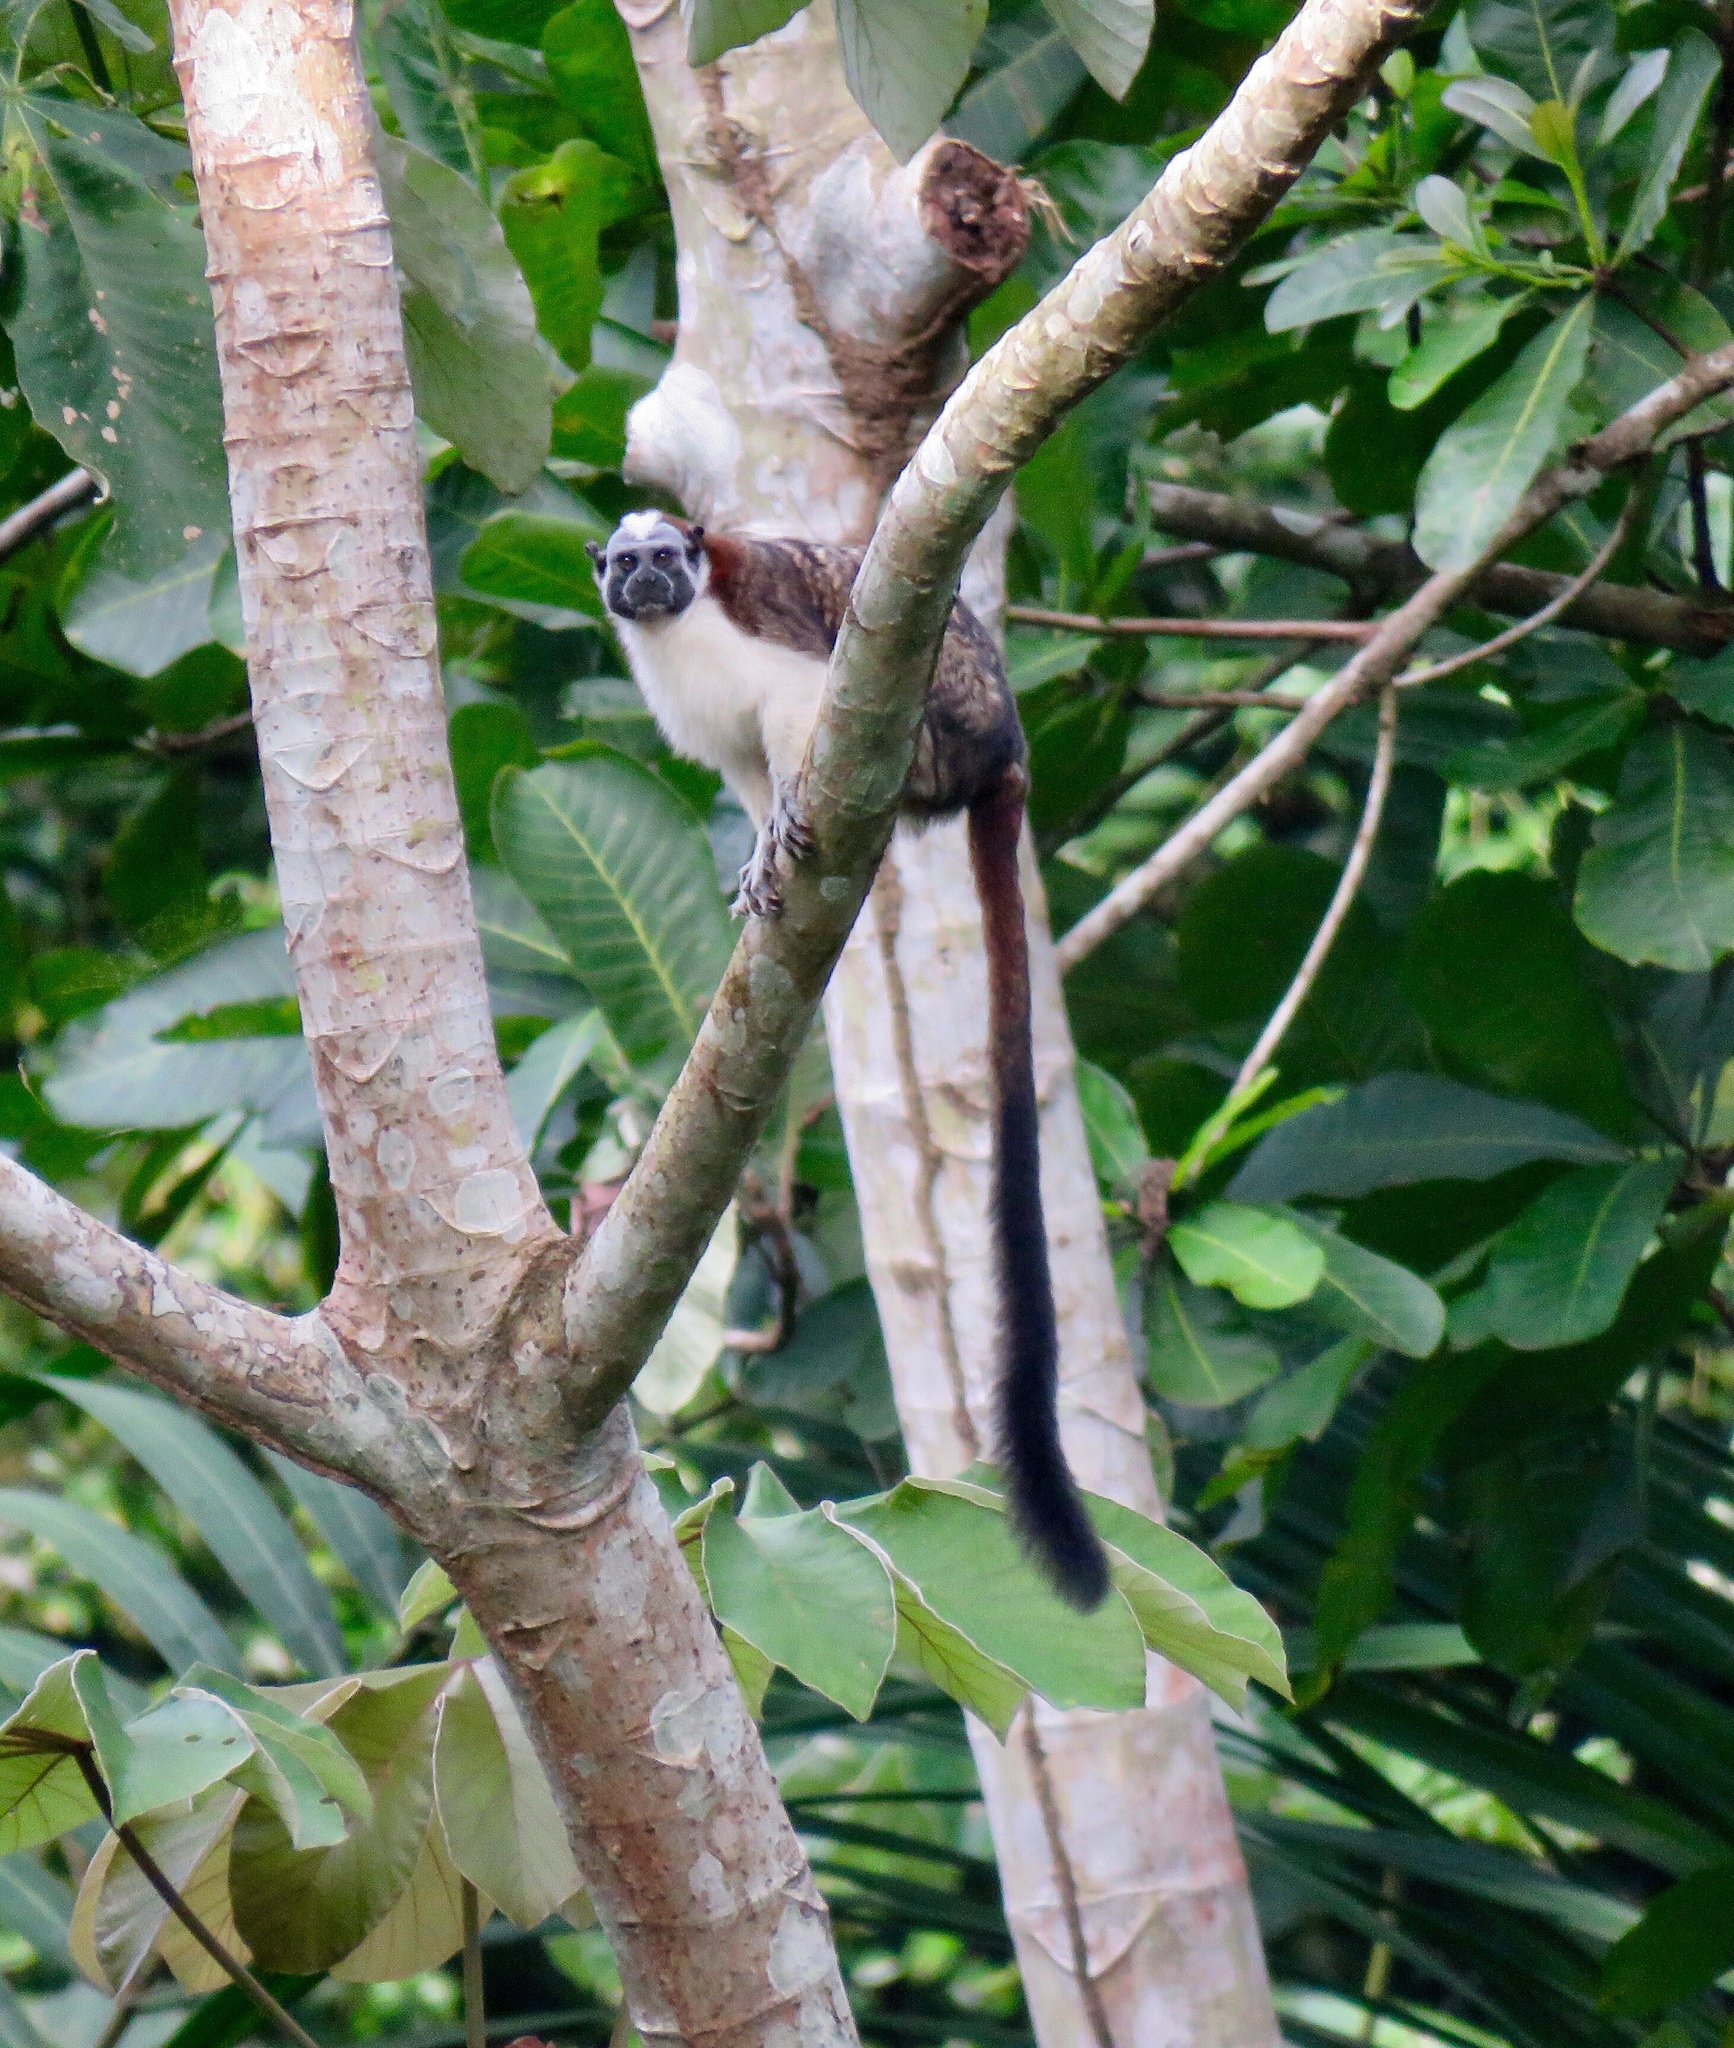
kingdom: Animalia
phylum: Chordata
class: Mammalia
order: Primates
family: Callitrichidae
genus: Saguinus
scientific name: Saguinus geoffroyi
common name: Geoffroy s tamarin
